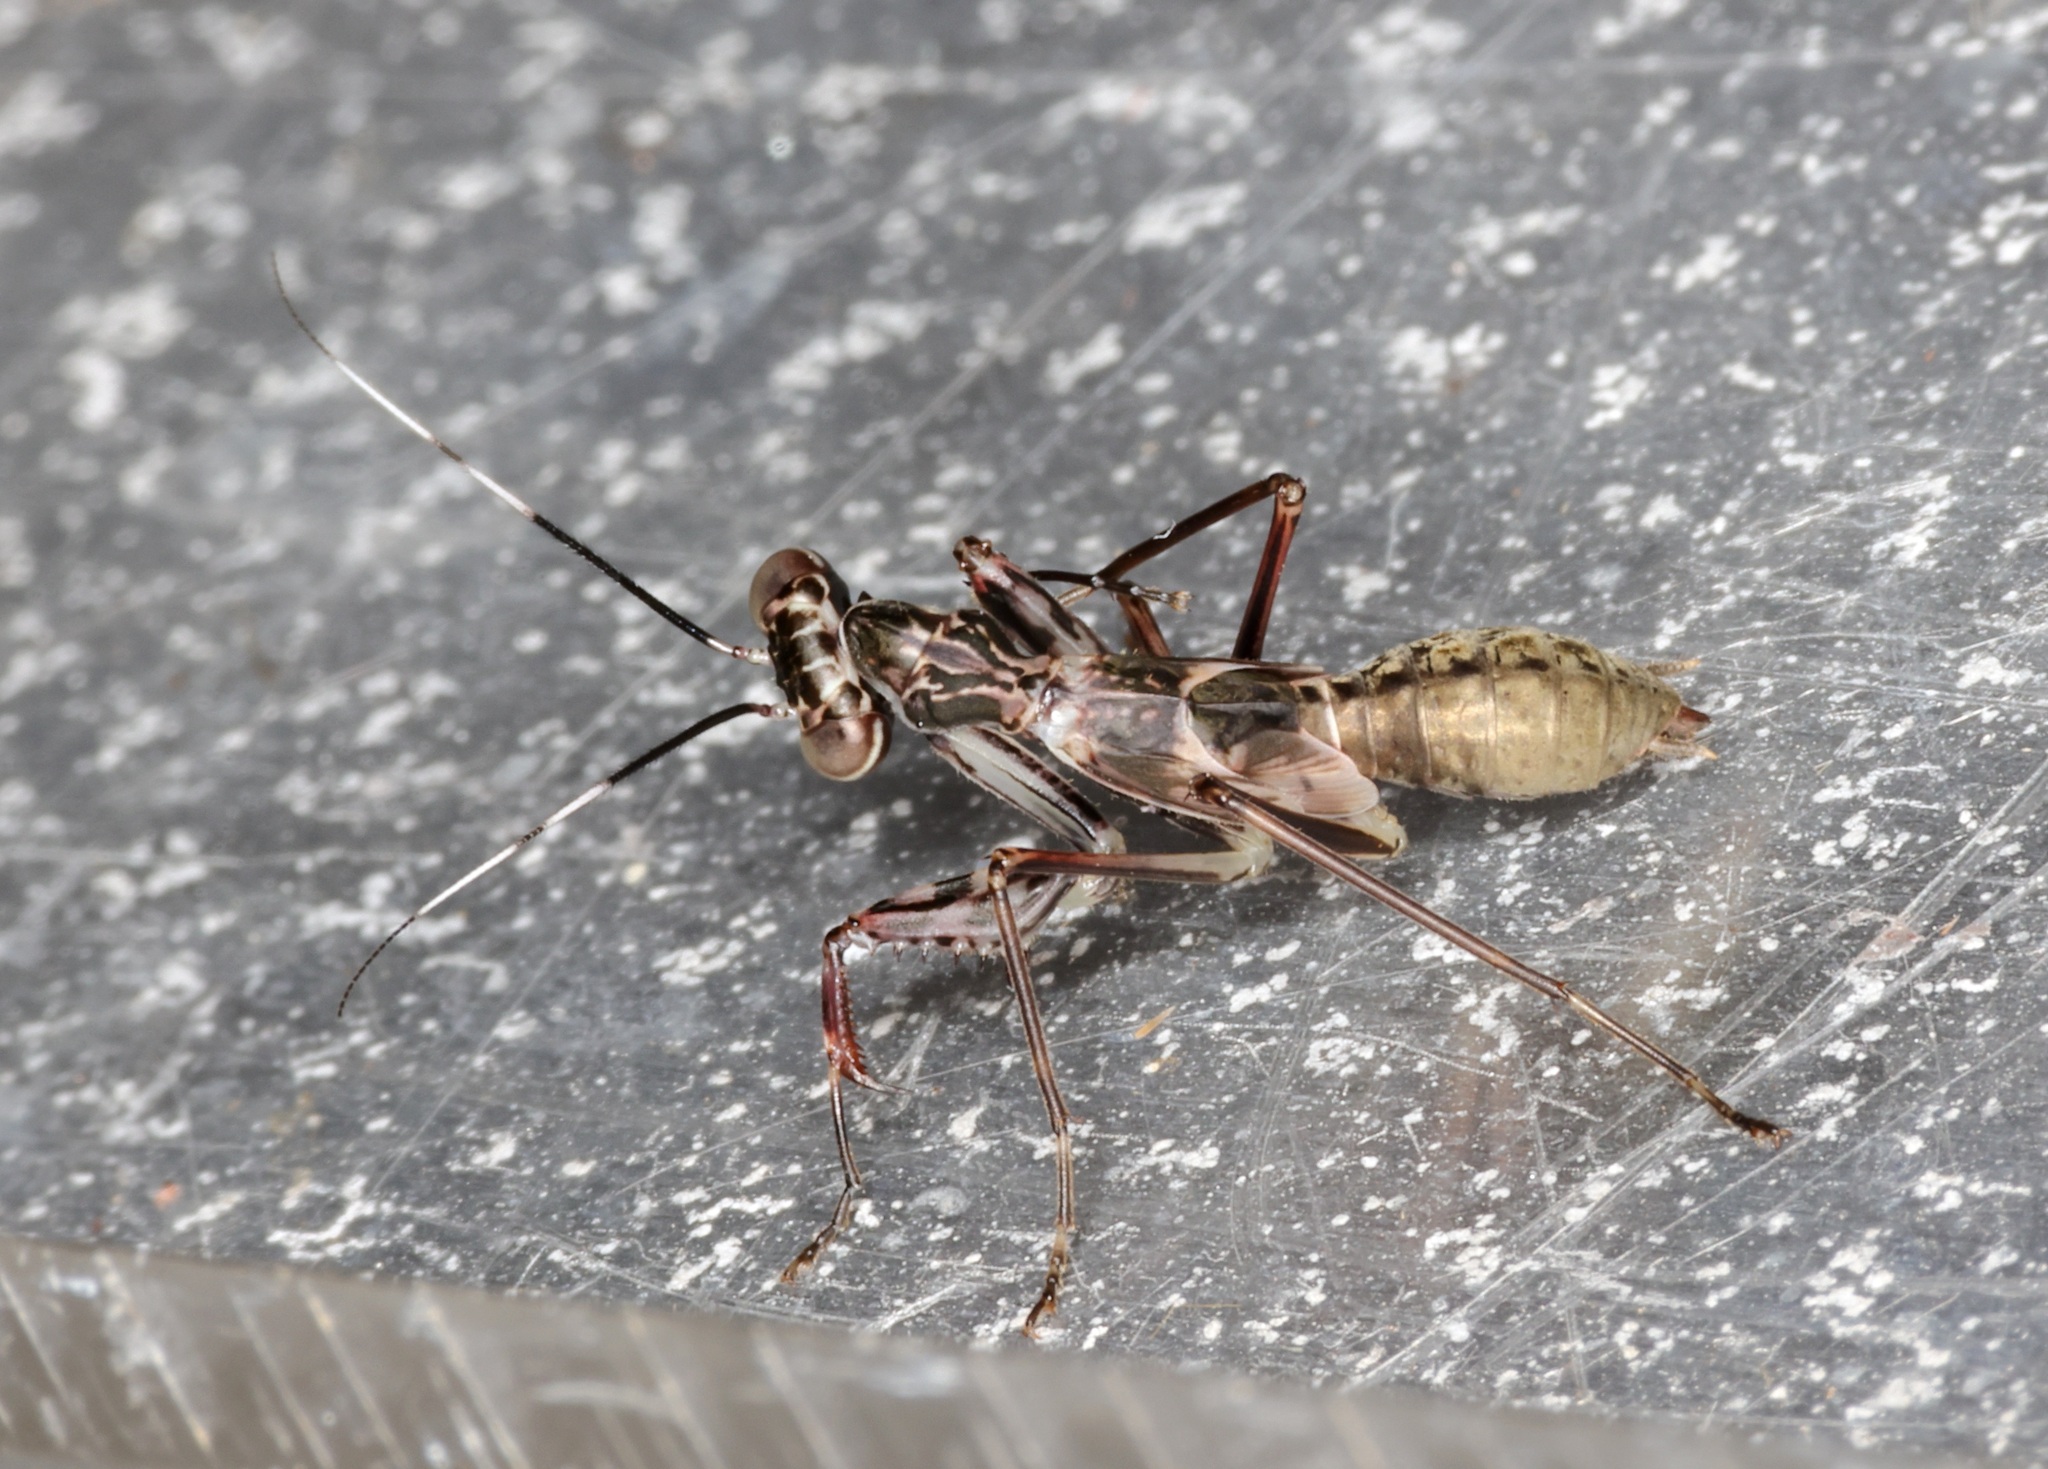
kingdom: Animalia
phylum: Arthropoda
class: Insecta
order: Mantodea
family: Gonypetidae
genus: Spilomantis
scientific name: Spilomantis occipitalis
